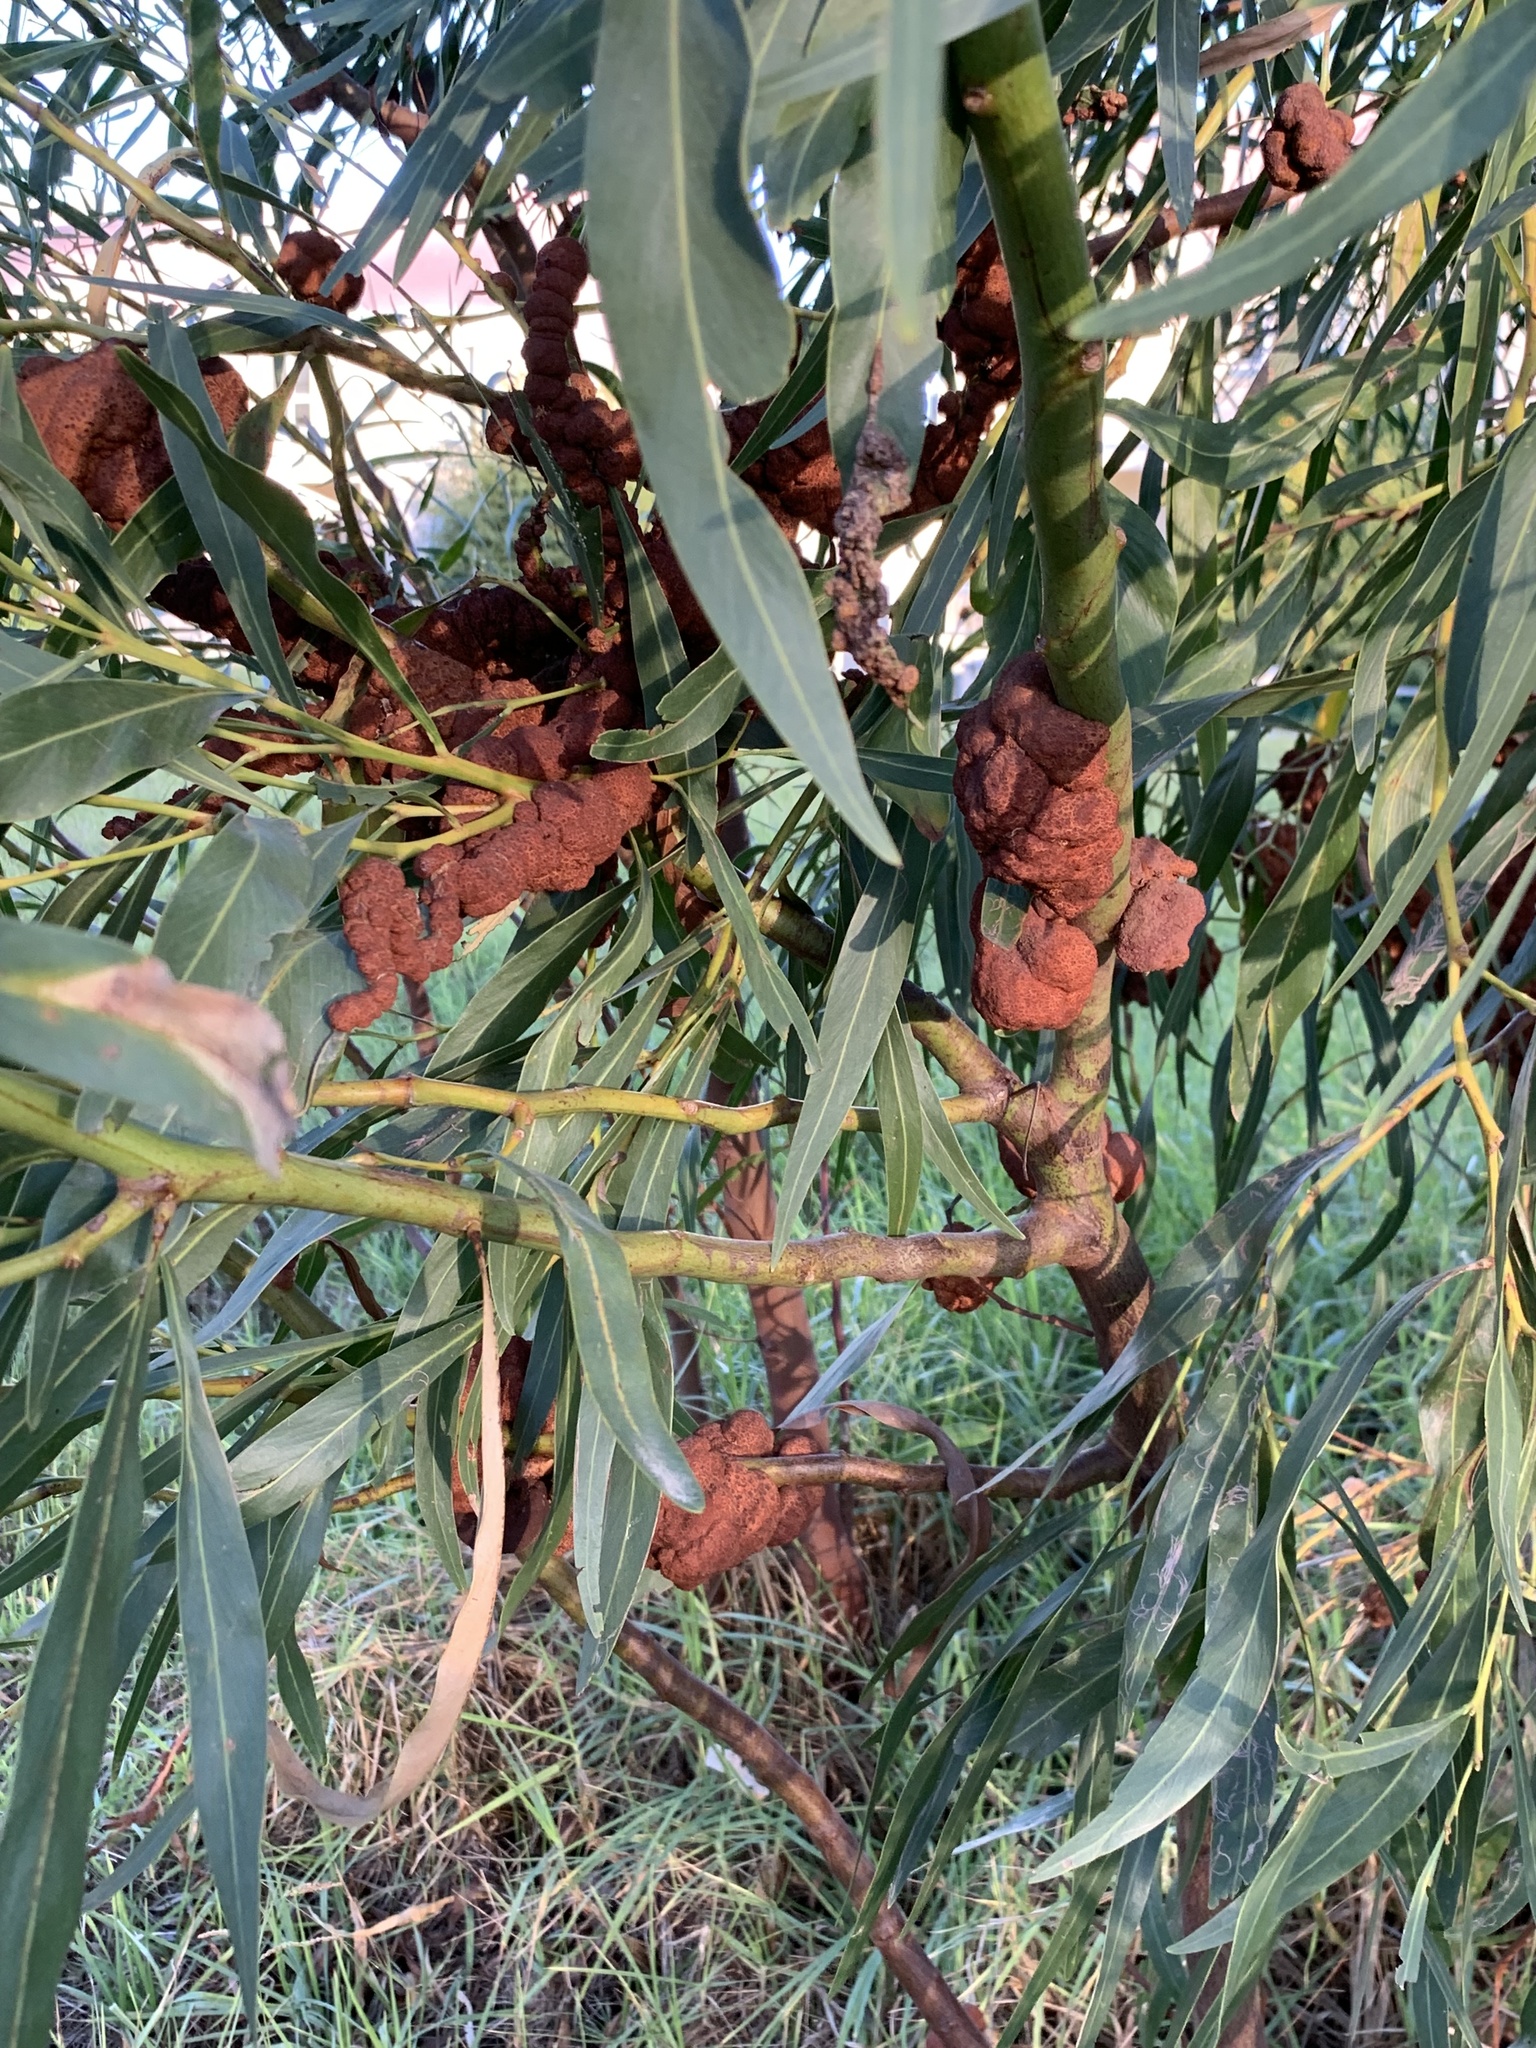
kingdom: Plantae
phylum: Tracheophyta
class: Magnoliopsida
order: Fabales
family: Fabaceae
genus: Acacia
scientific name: Acacia saligna
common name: Orange wattle
